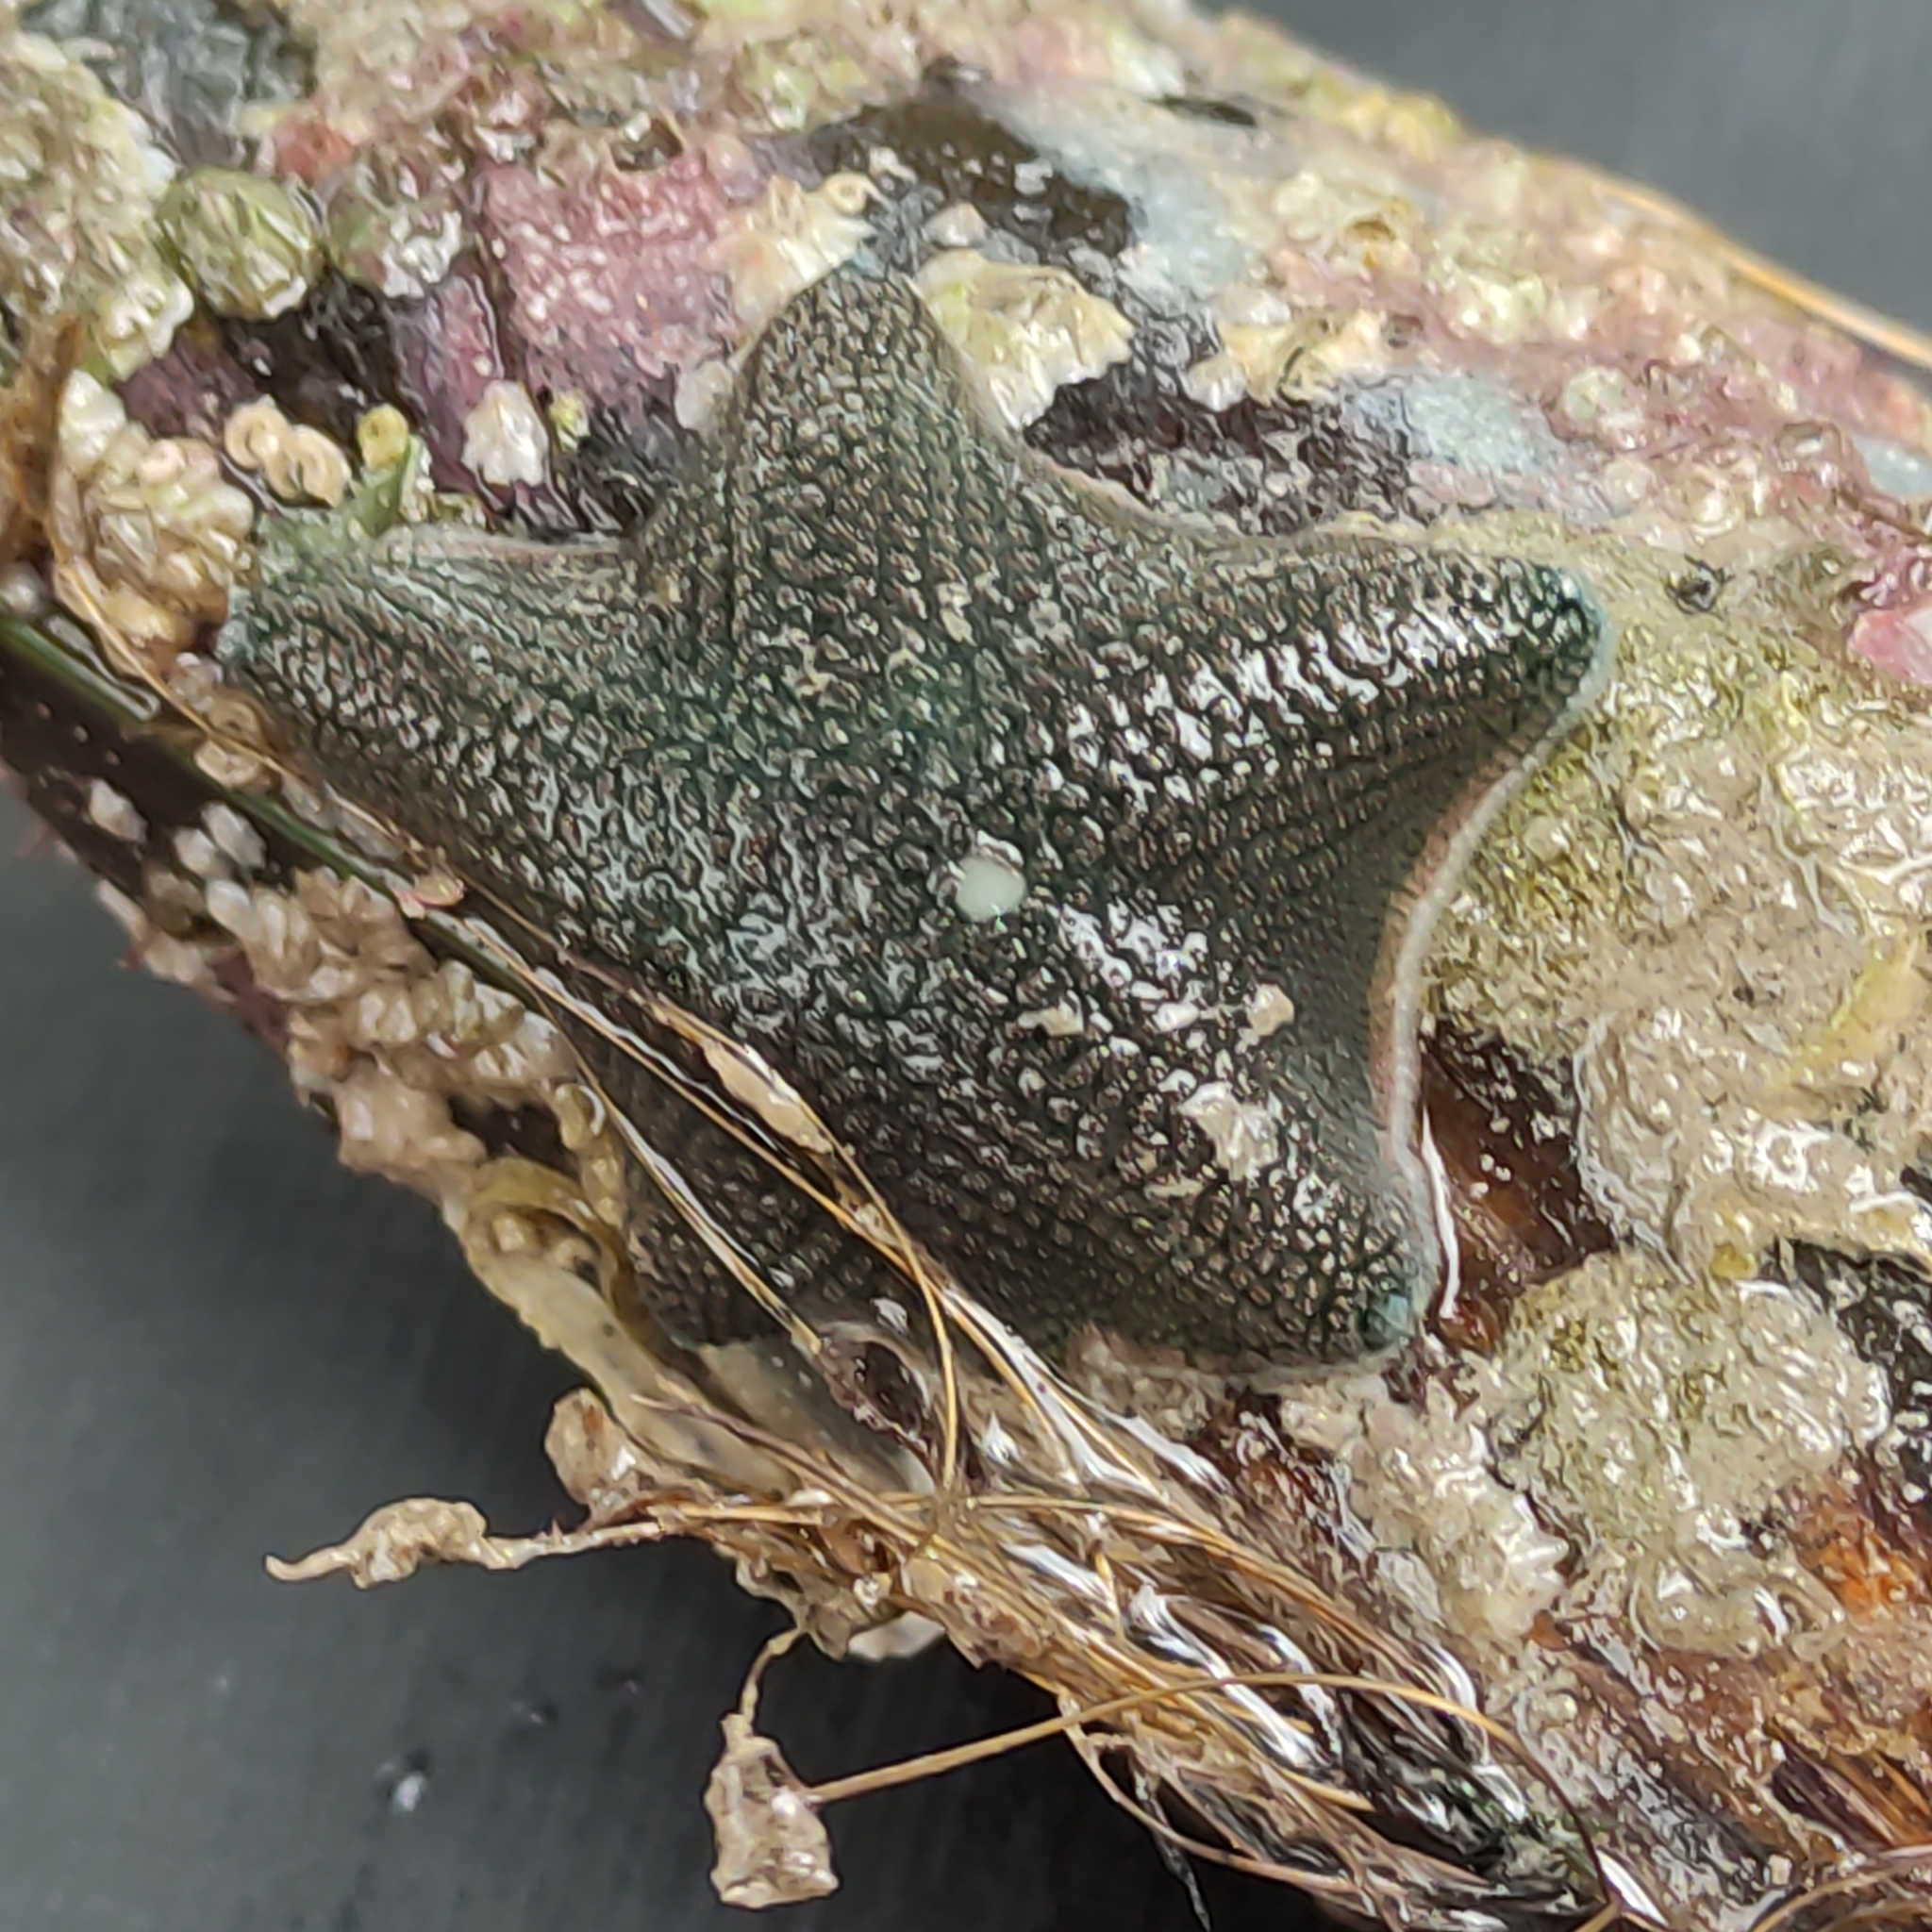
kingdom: Animalia
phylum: Echinodermata
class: Asteroidea
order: Valvatida
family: Asterinidae
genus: Patiriella
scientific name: Patiriella regularis
